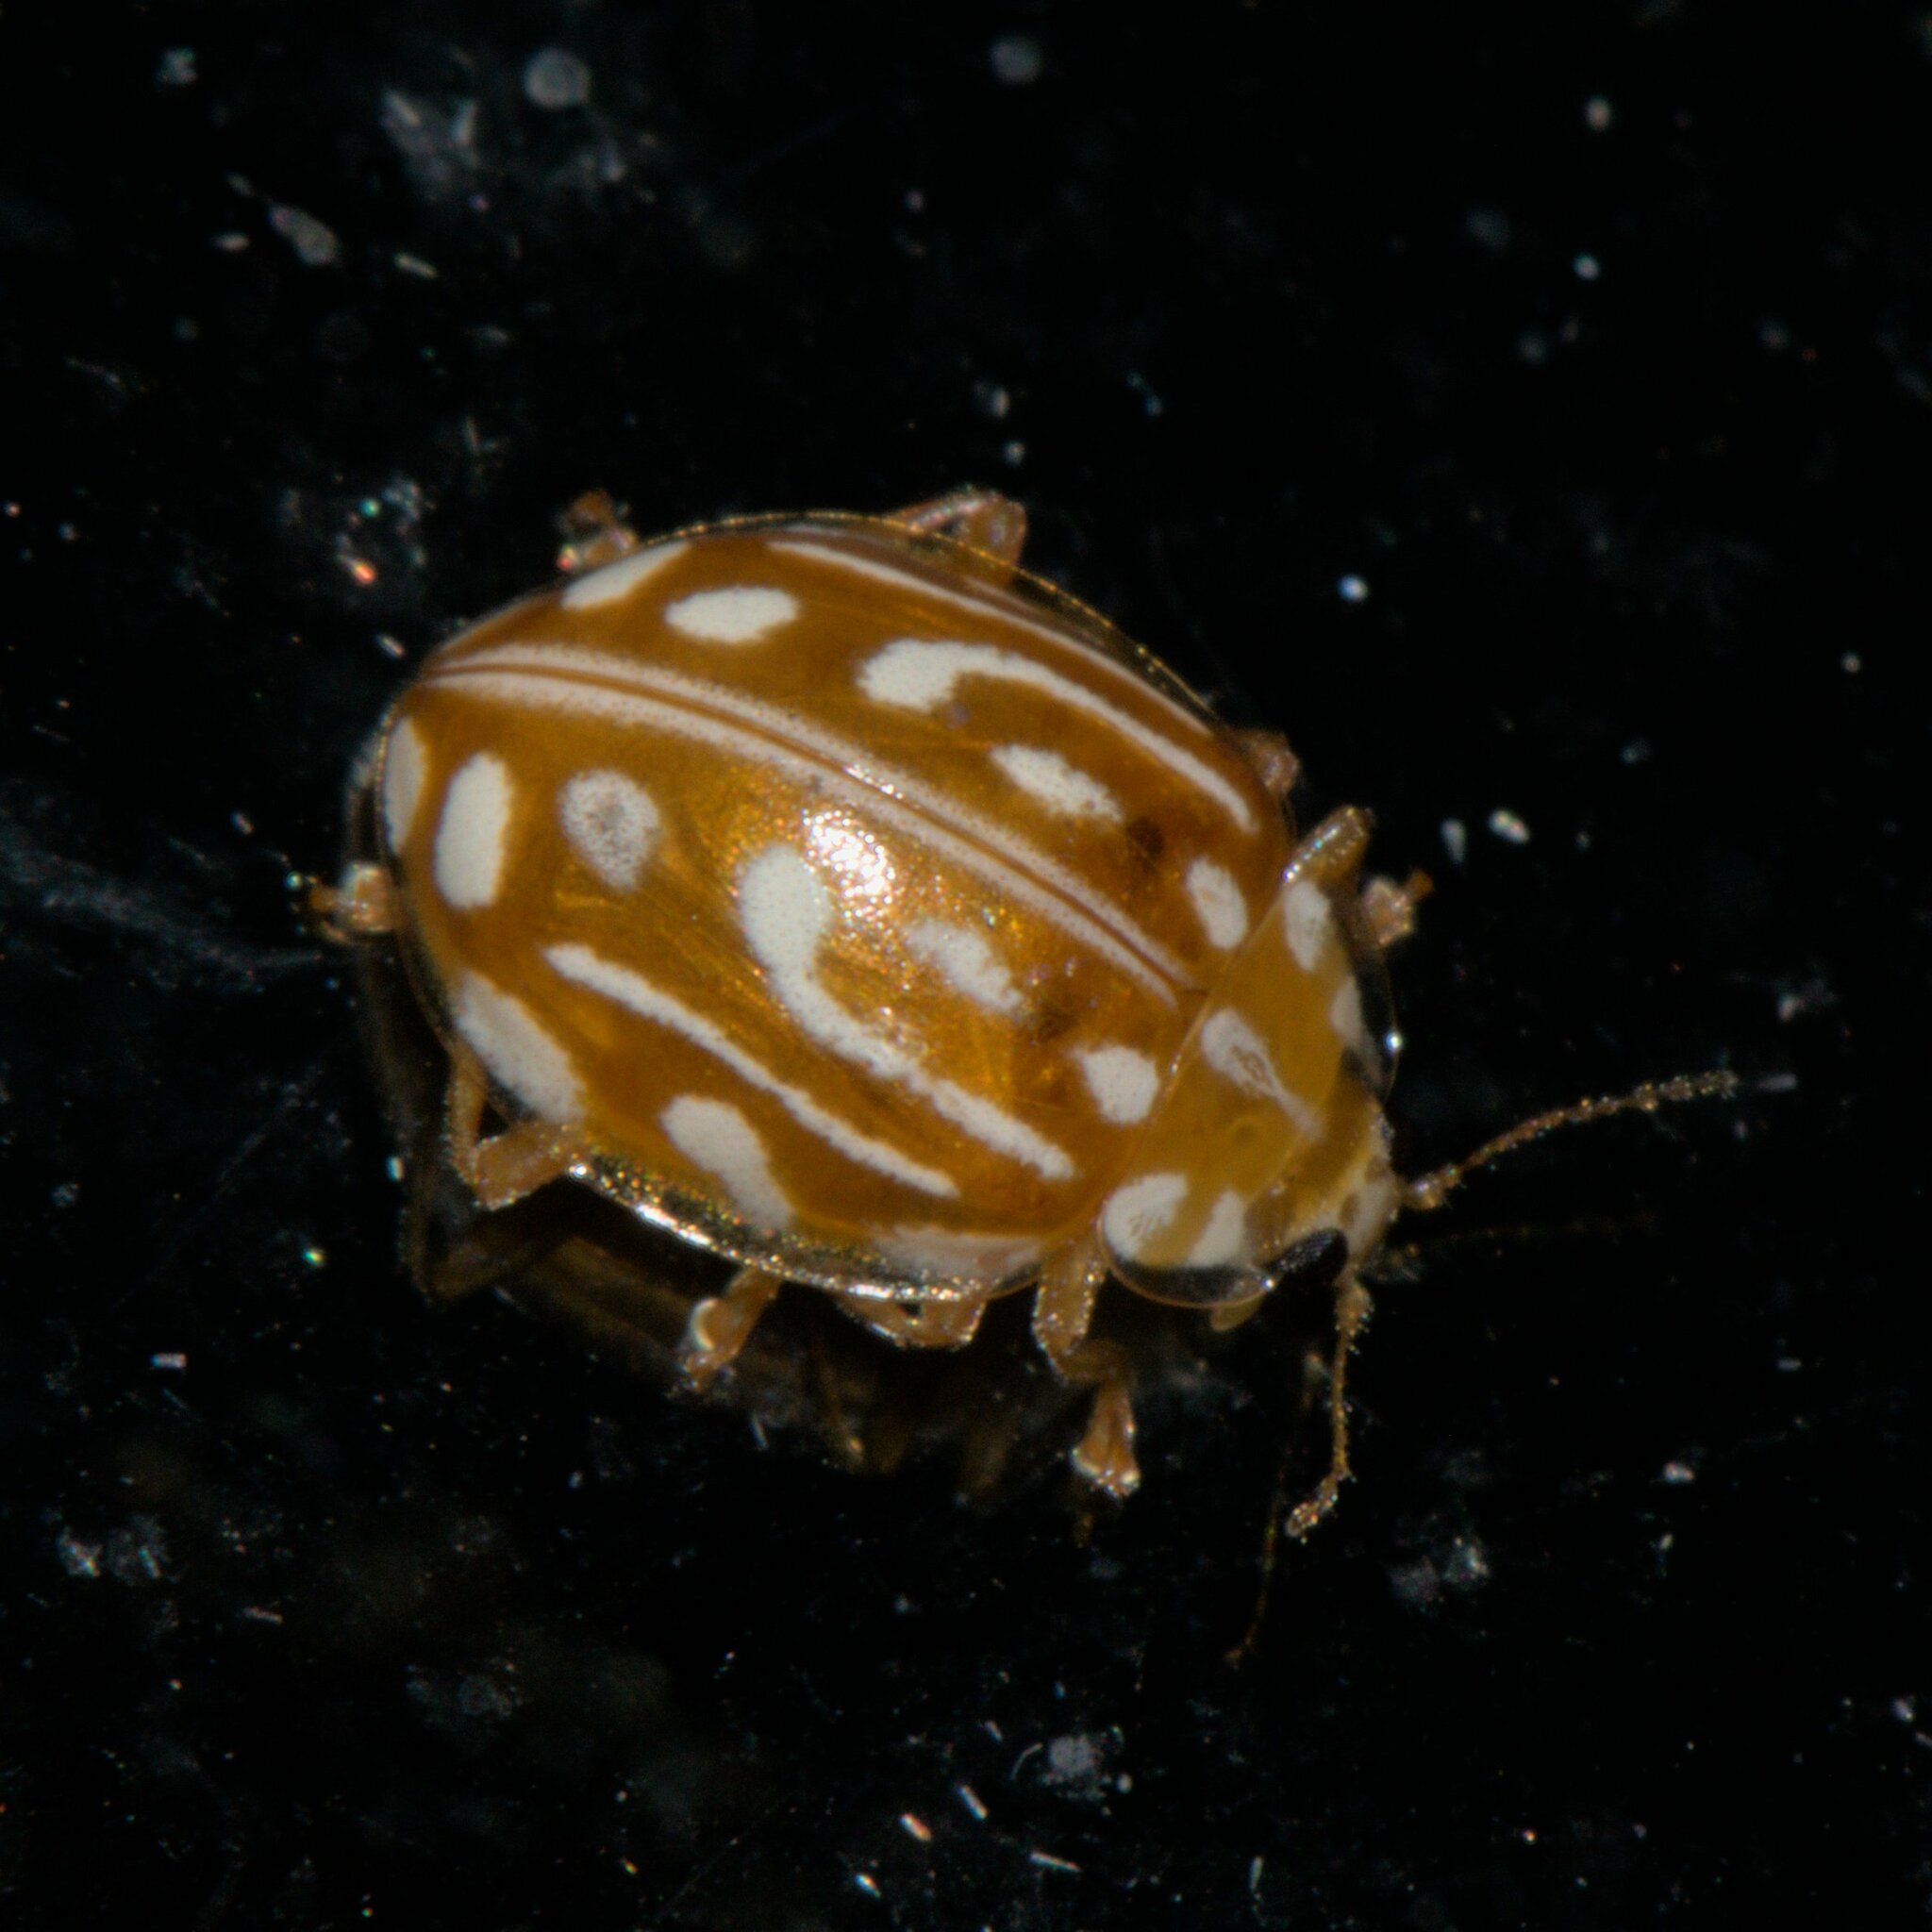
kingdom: Animalia
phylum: Arthropoda
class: Insecta
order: Coleoptera
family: Coccinellidae
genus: Halyzia
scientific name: Halyzia sanscrita
